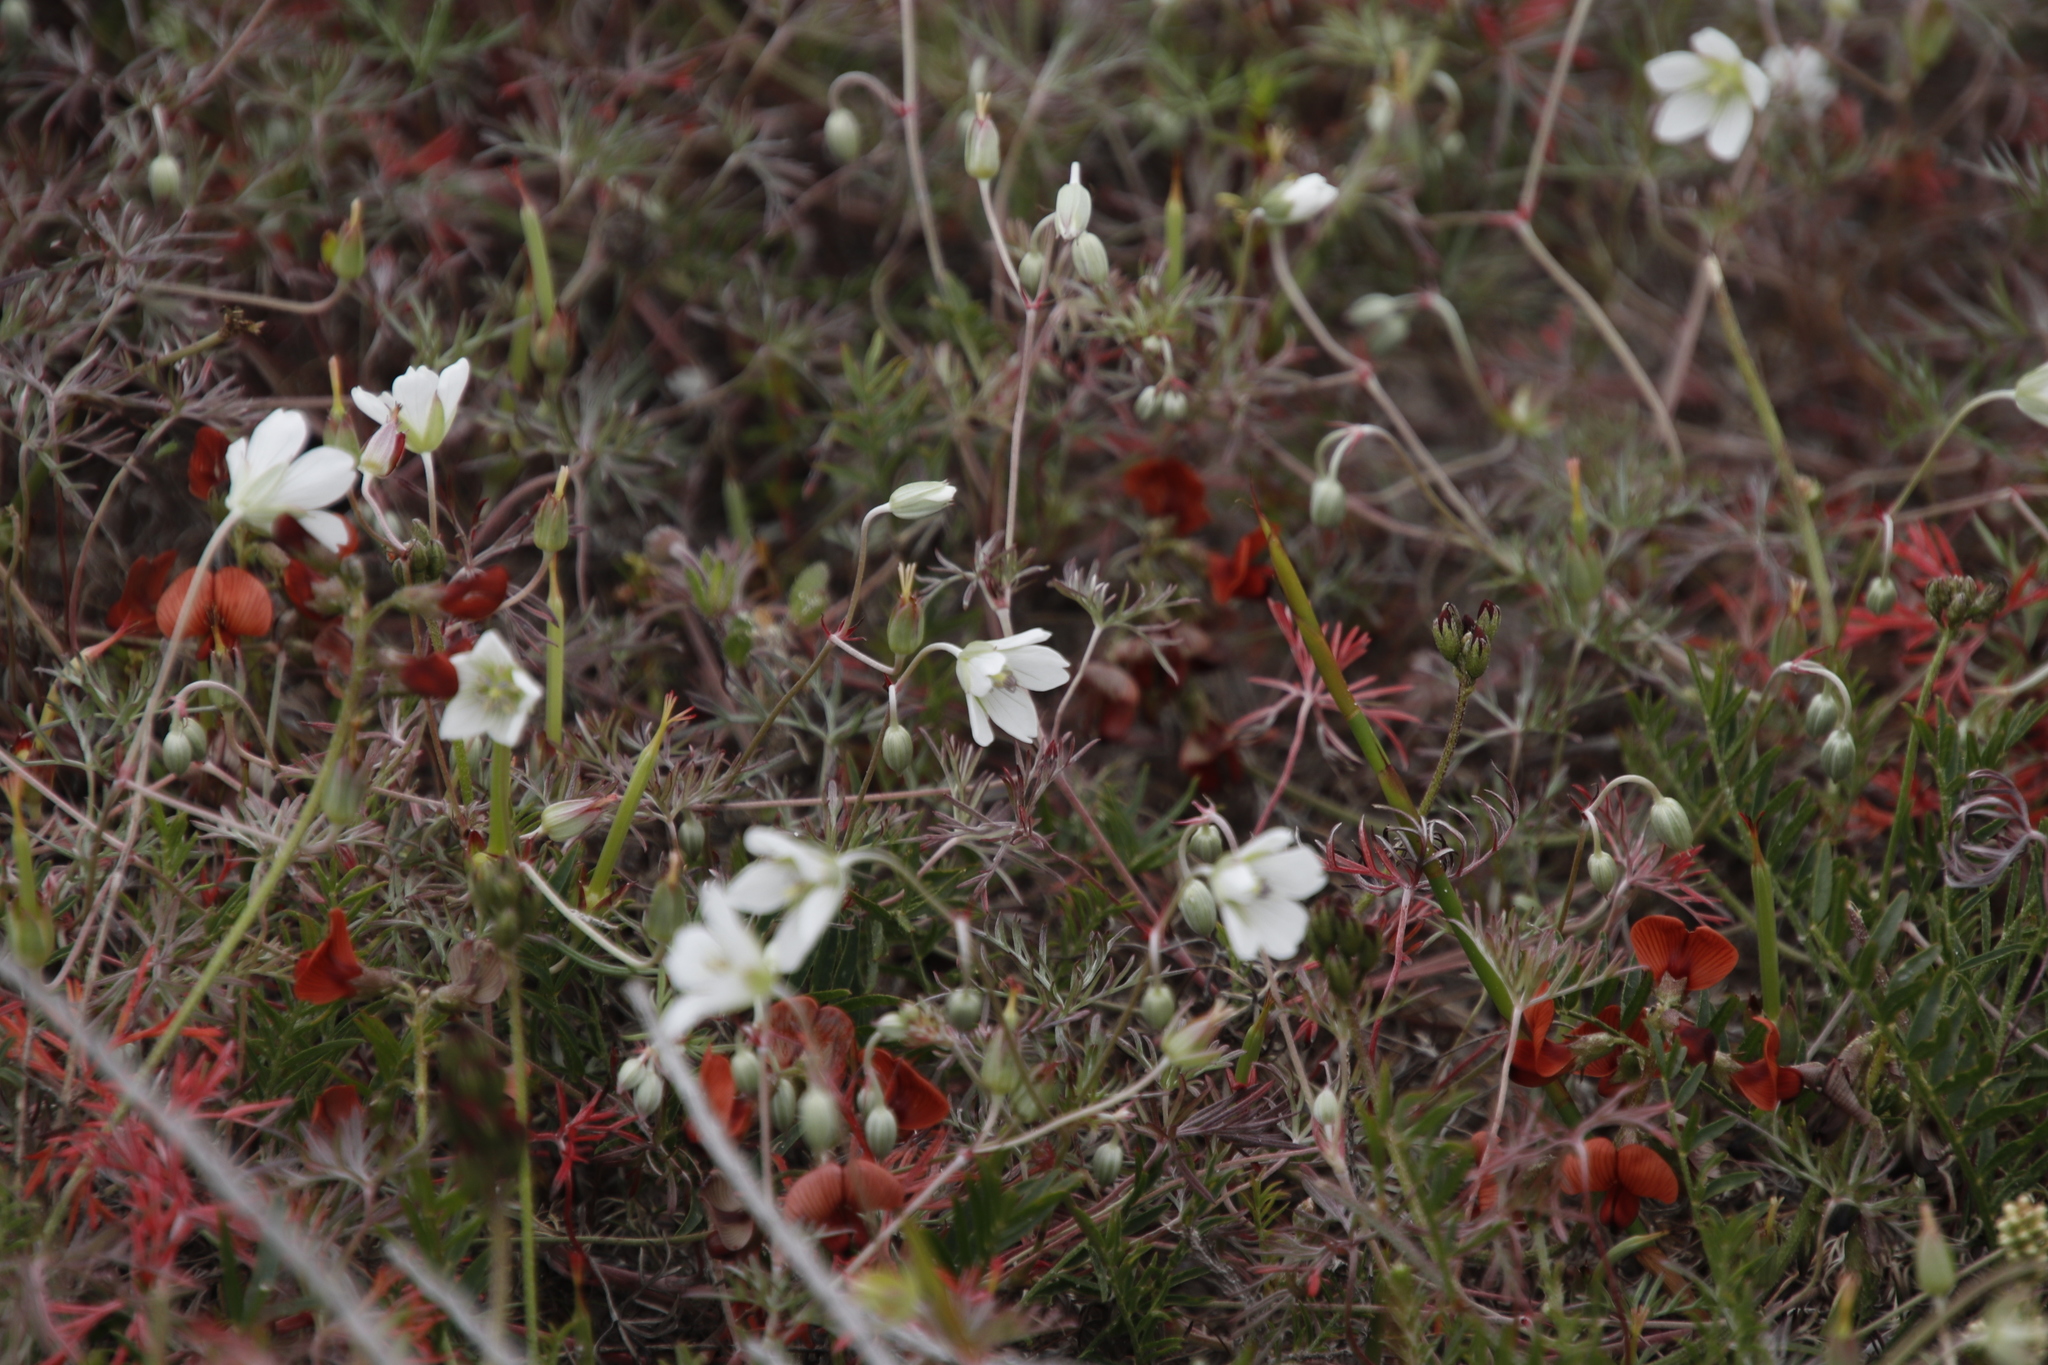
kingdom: Plantae
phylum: Tracheophyta
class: Magnoliopsida
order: Fabales
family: Fabaceae
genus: Lessertia
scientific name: Lessertia miniata
